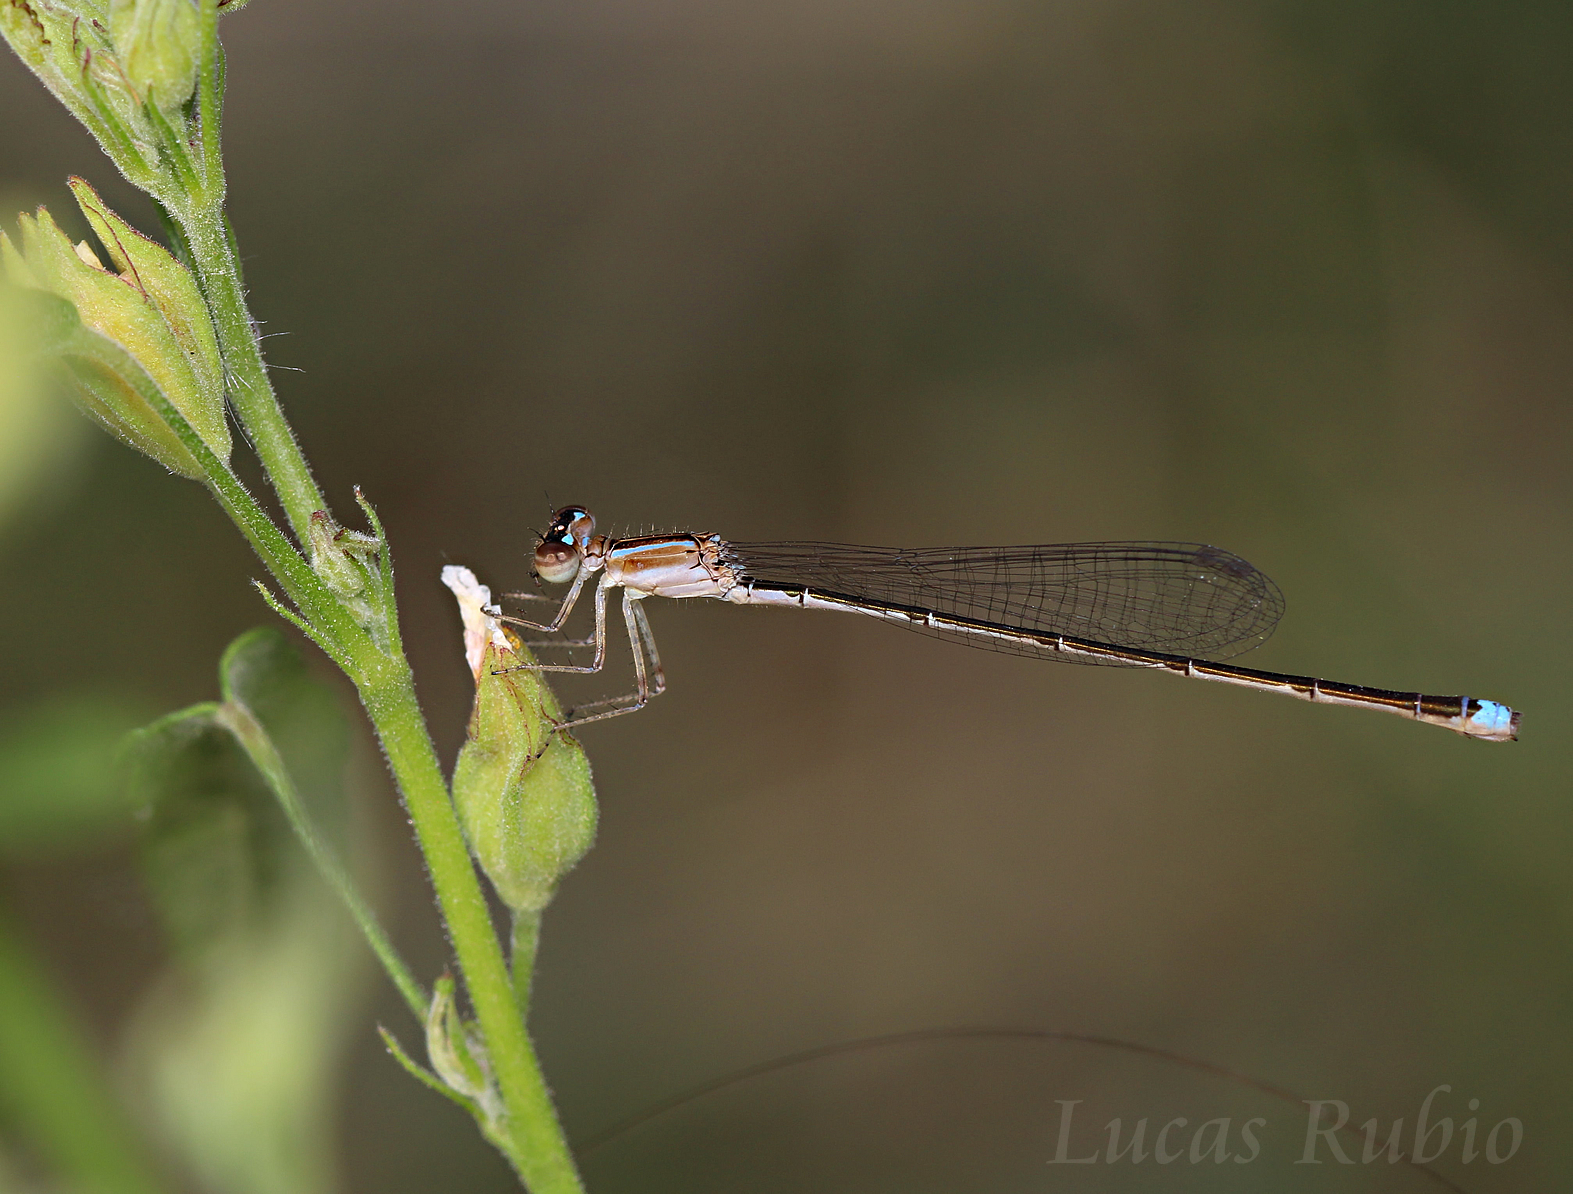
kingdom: Animalia
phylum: Arthropoda
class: Insecta
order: Odonata
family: Coenagrionidae
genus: Argentagrion
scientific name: Argentagrion ambiguum
